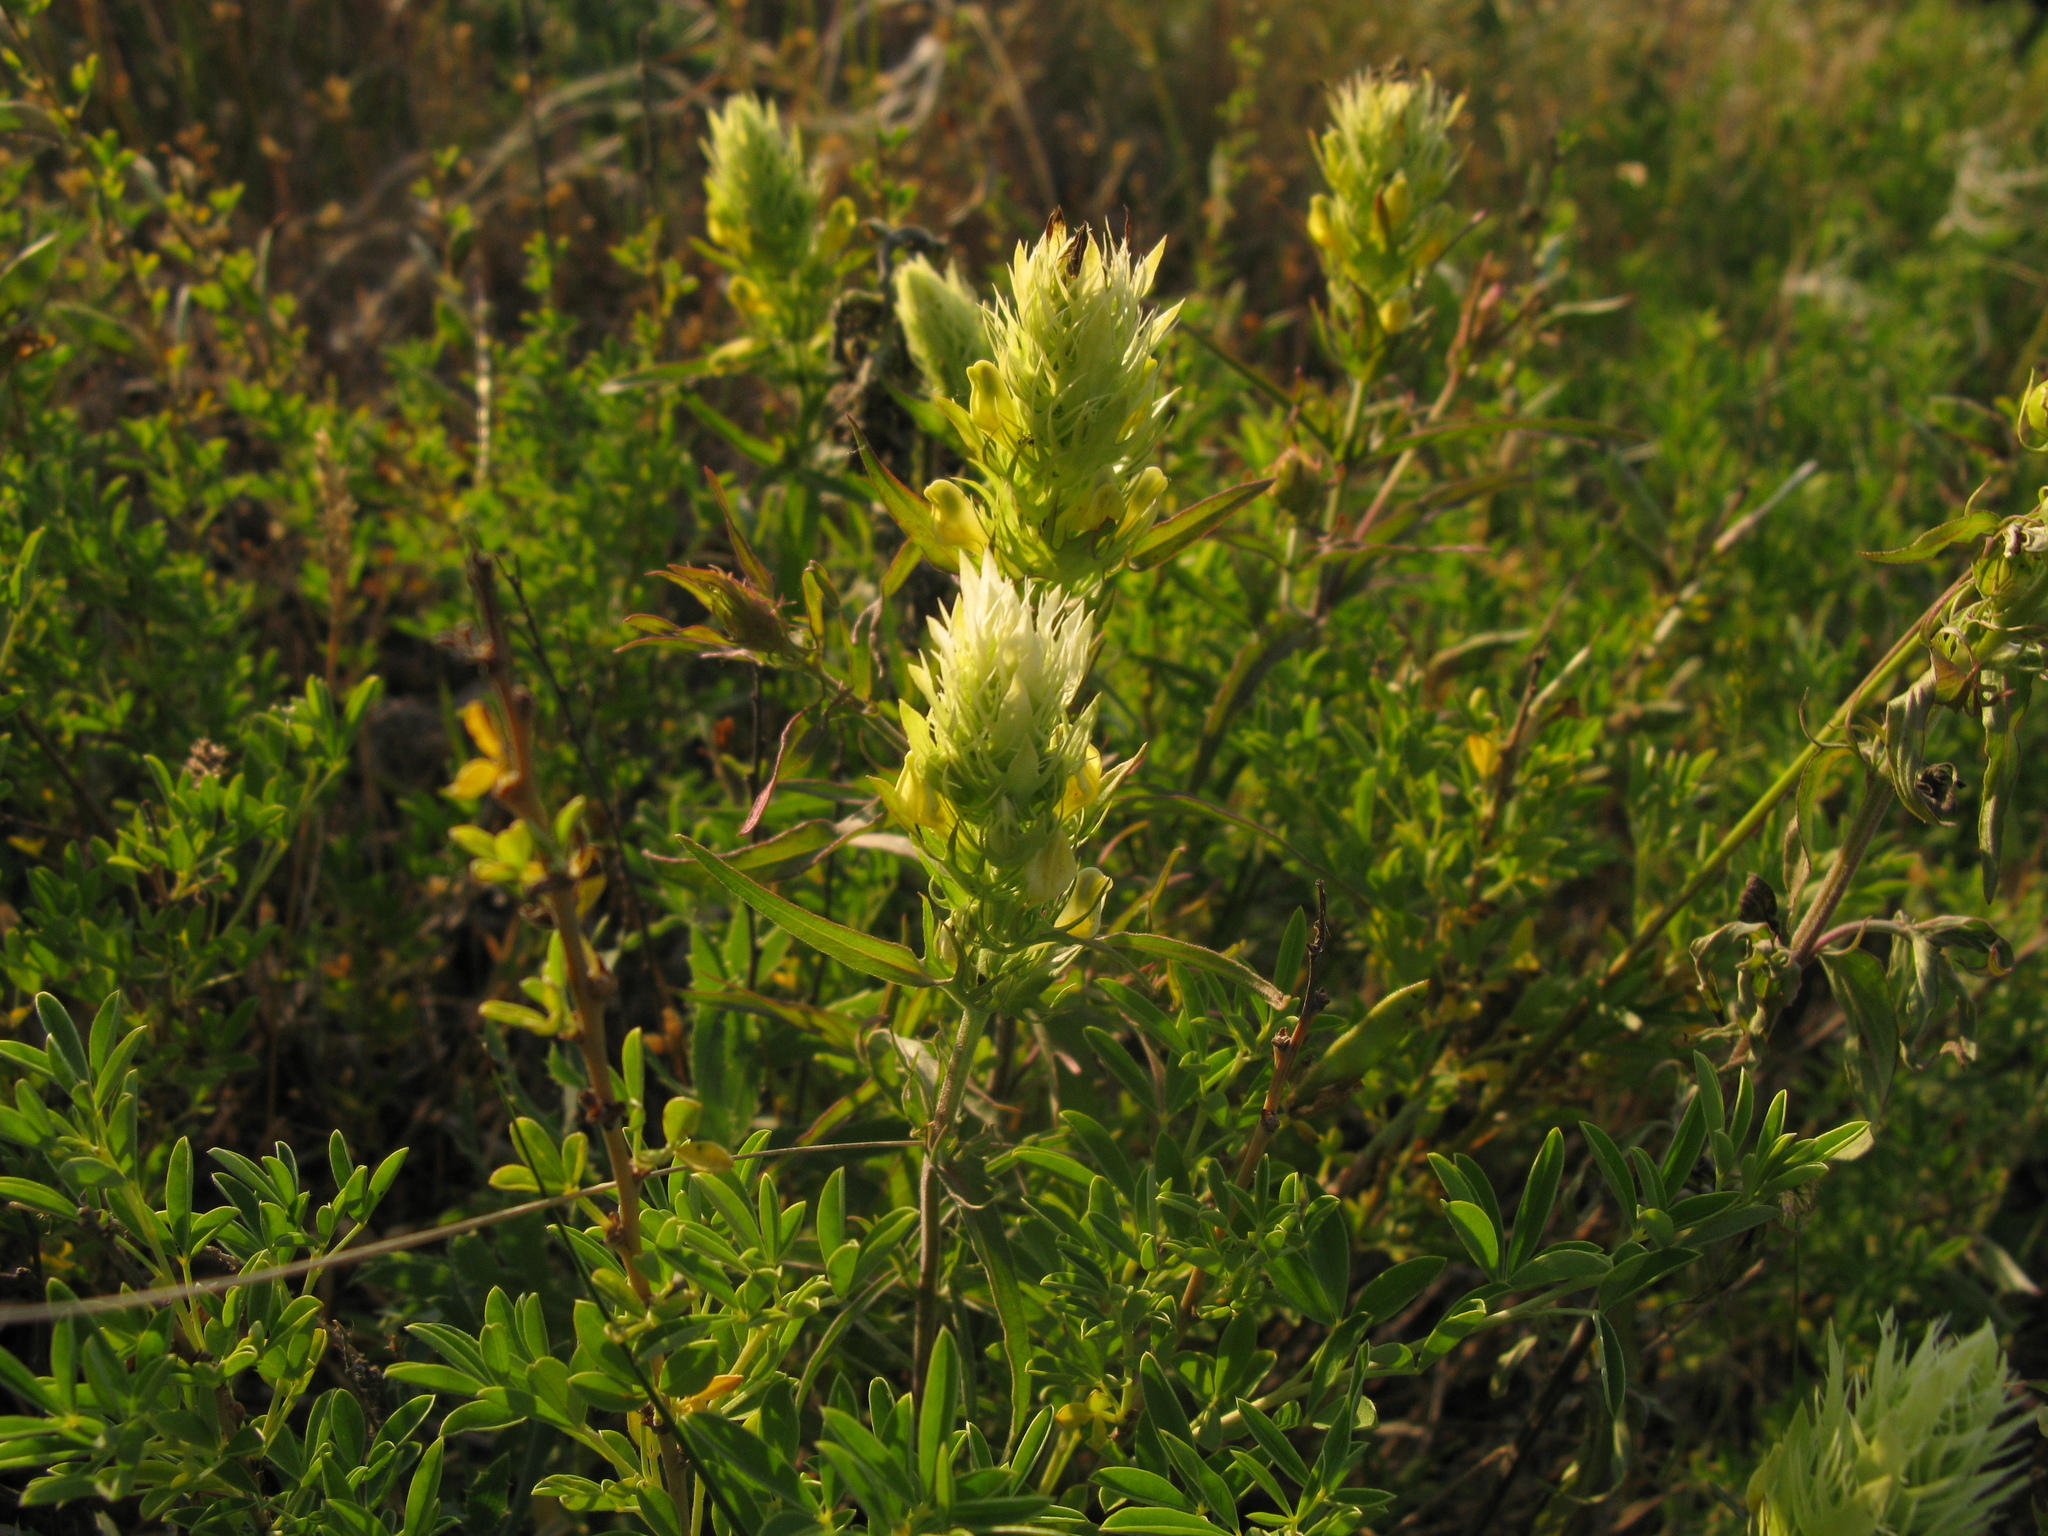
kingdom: Plantae
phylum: Tracheophyta
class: Magnoliopsida
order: Lamiales
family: Orobanchaceae
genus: Melampyrum
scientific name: Melampyrum arvense
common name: Field cow-wheat
